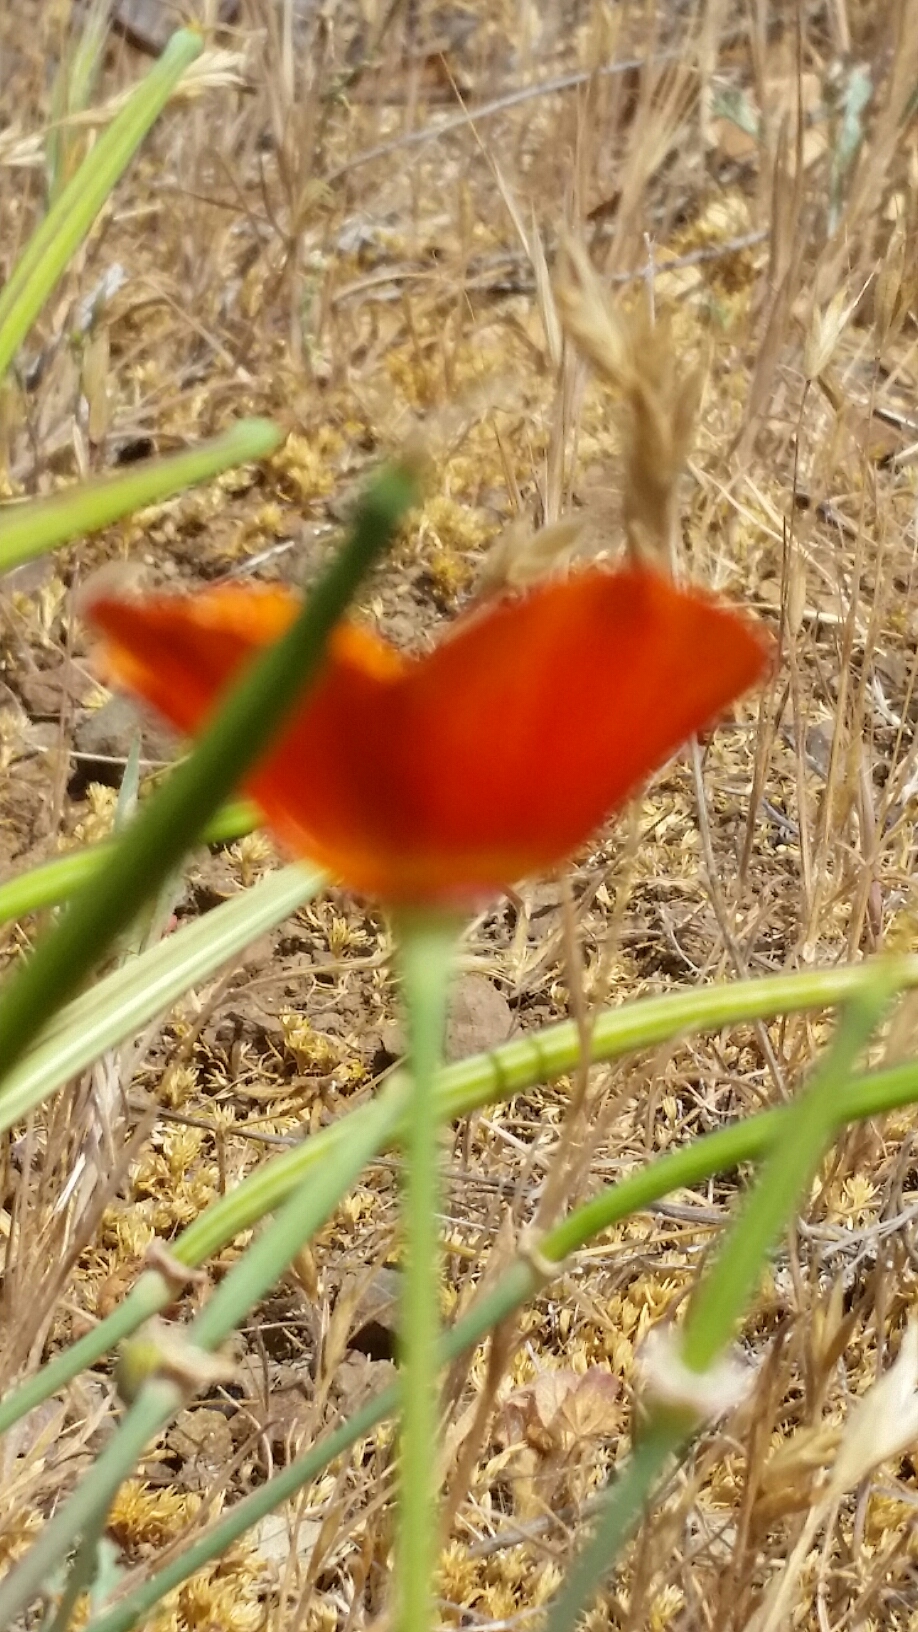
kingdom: Plantae
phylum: Tracheophyta
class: Magnoliopsida
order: Ranunculales
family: Papaveraceae
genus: Eschscholzia
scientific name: Eschscholzia californica
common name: California poppy
